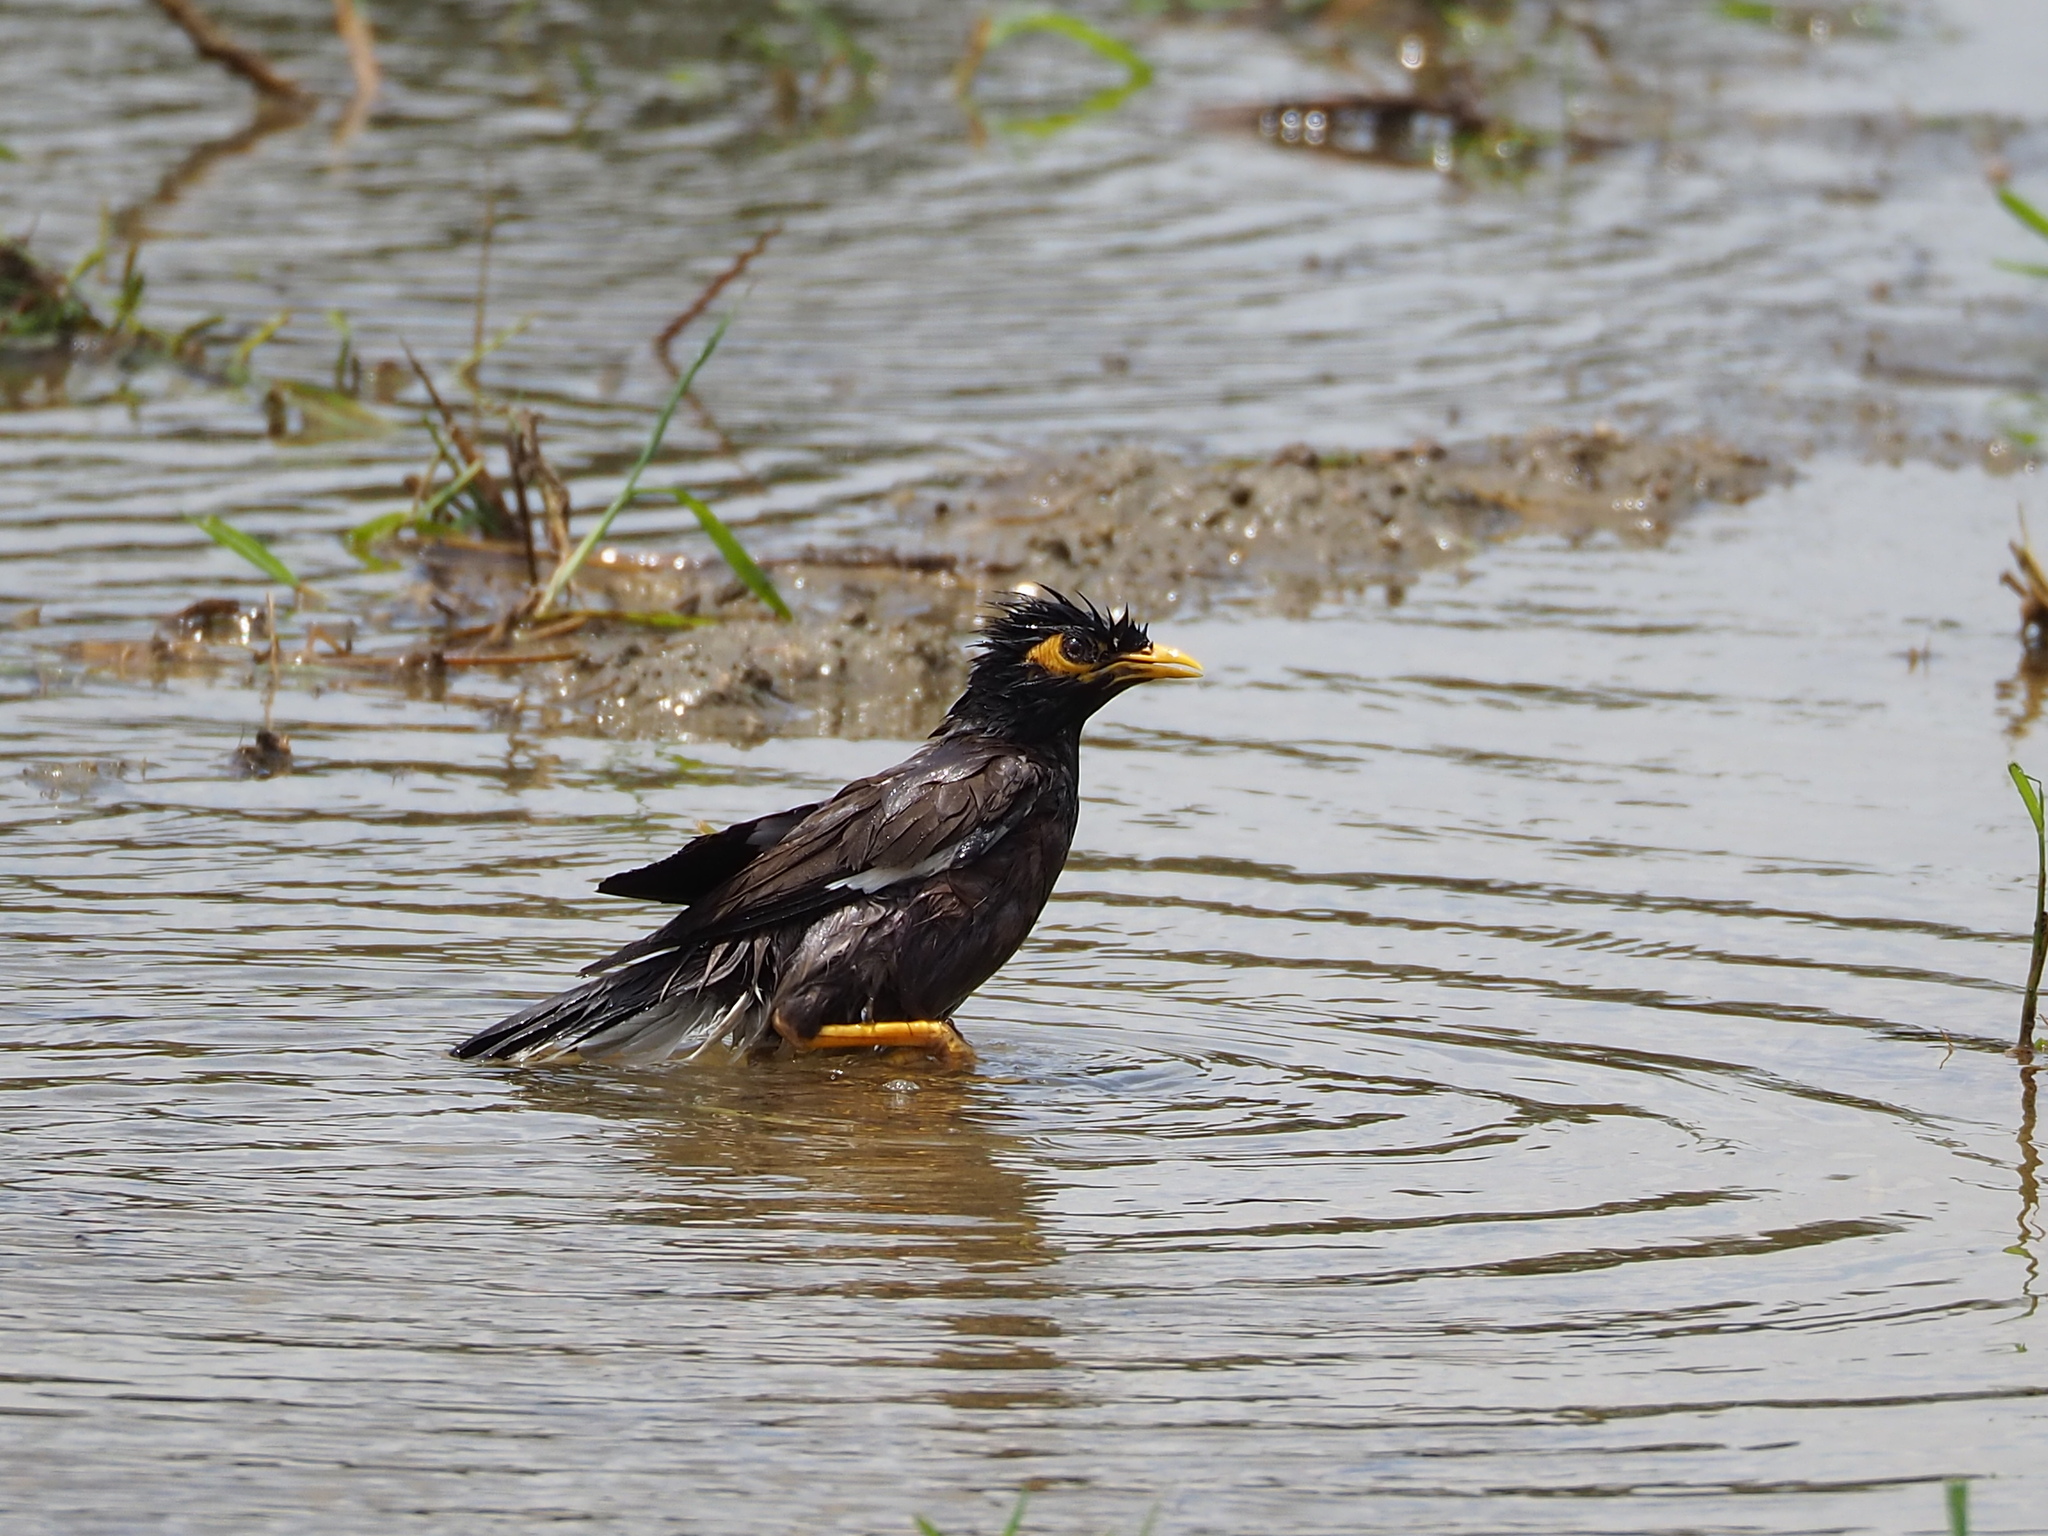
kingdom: Animalia
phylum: Chordata
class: Aves
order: Passeriformes
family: Sturnidae
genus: Acridotheres
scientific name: Acridotheres tristis
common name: Common myna
